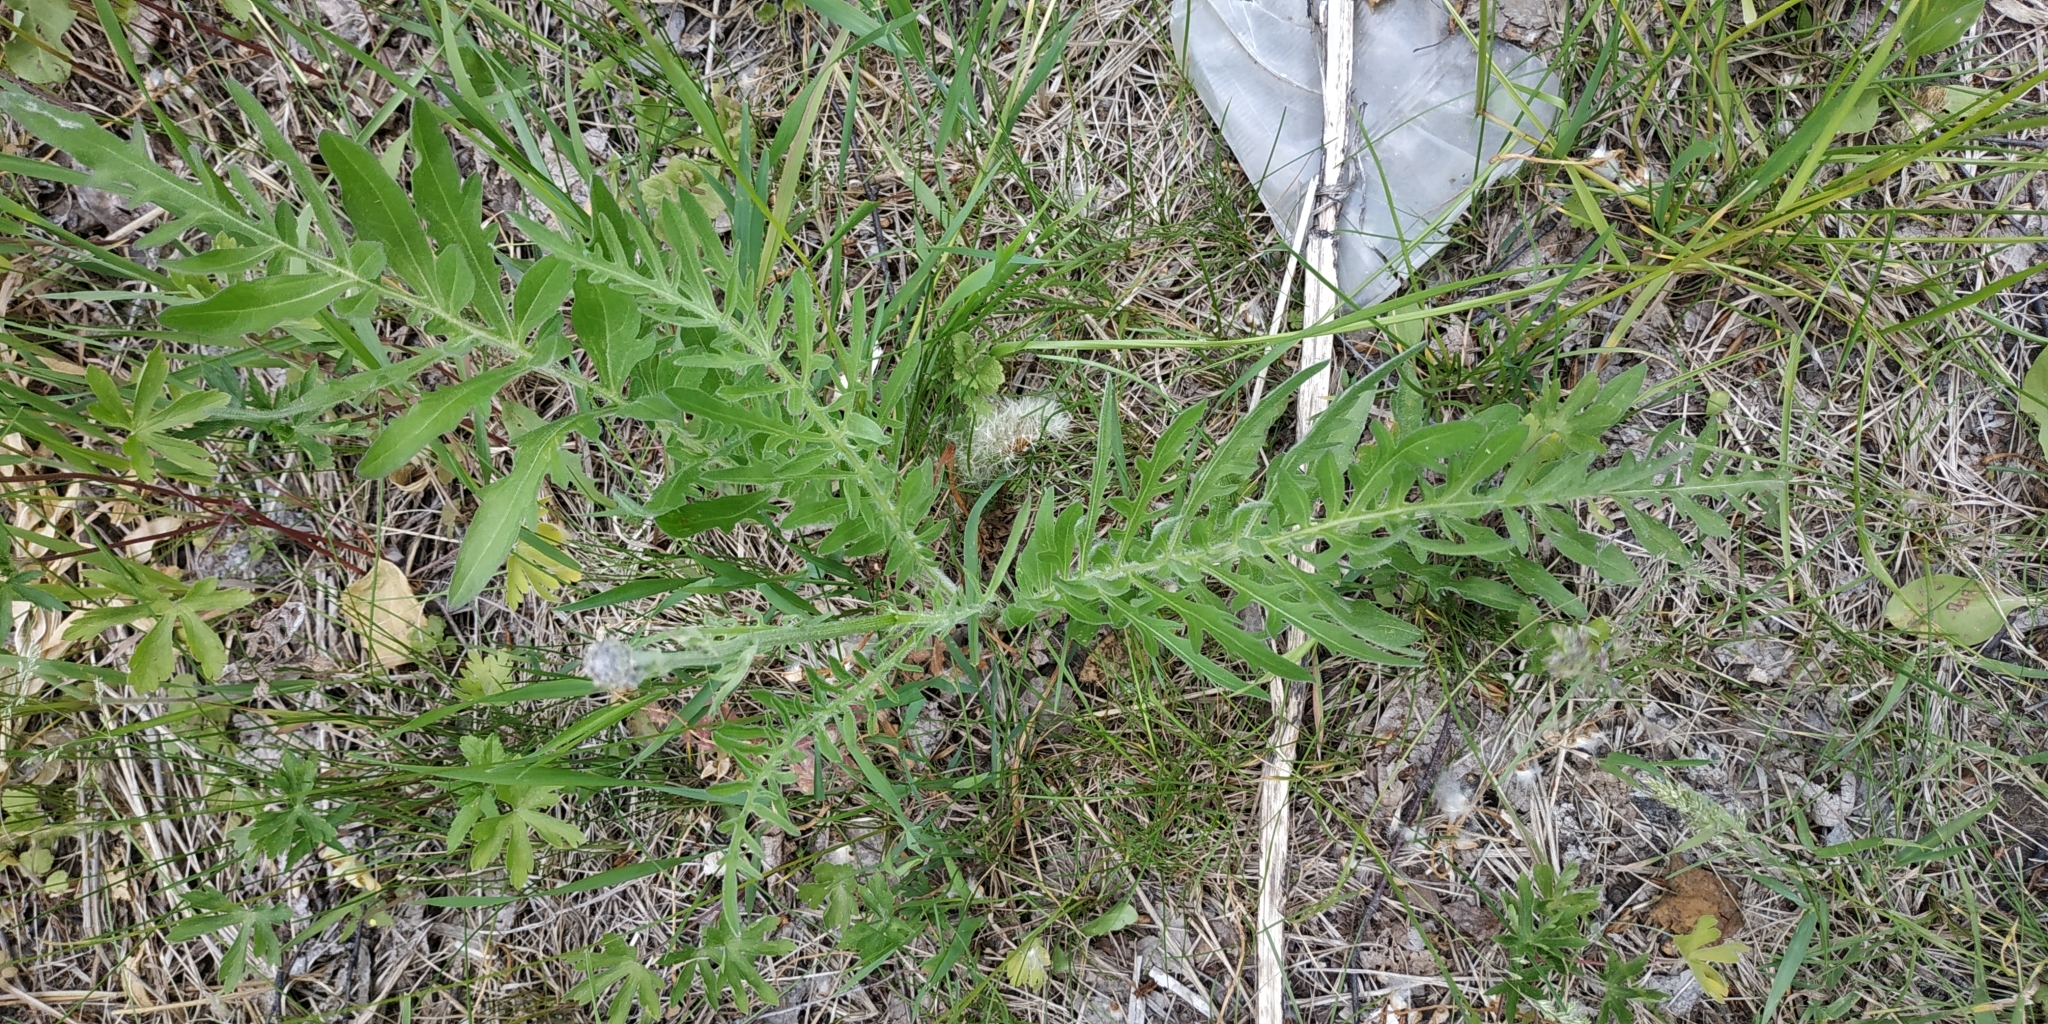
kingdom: Plantae
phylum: Tracheophyta
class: Magnoliopsida
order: Asterales
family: Asteraceae
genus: Centaurea
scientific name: Centaurea scabiosa
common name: Greater knapweed
